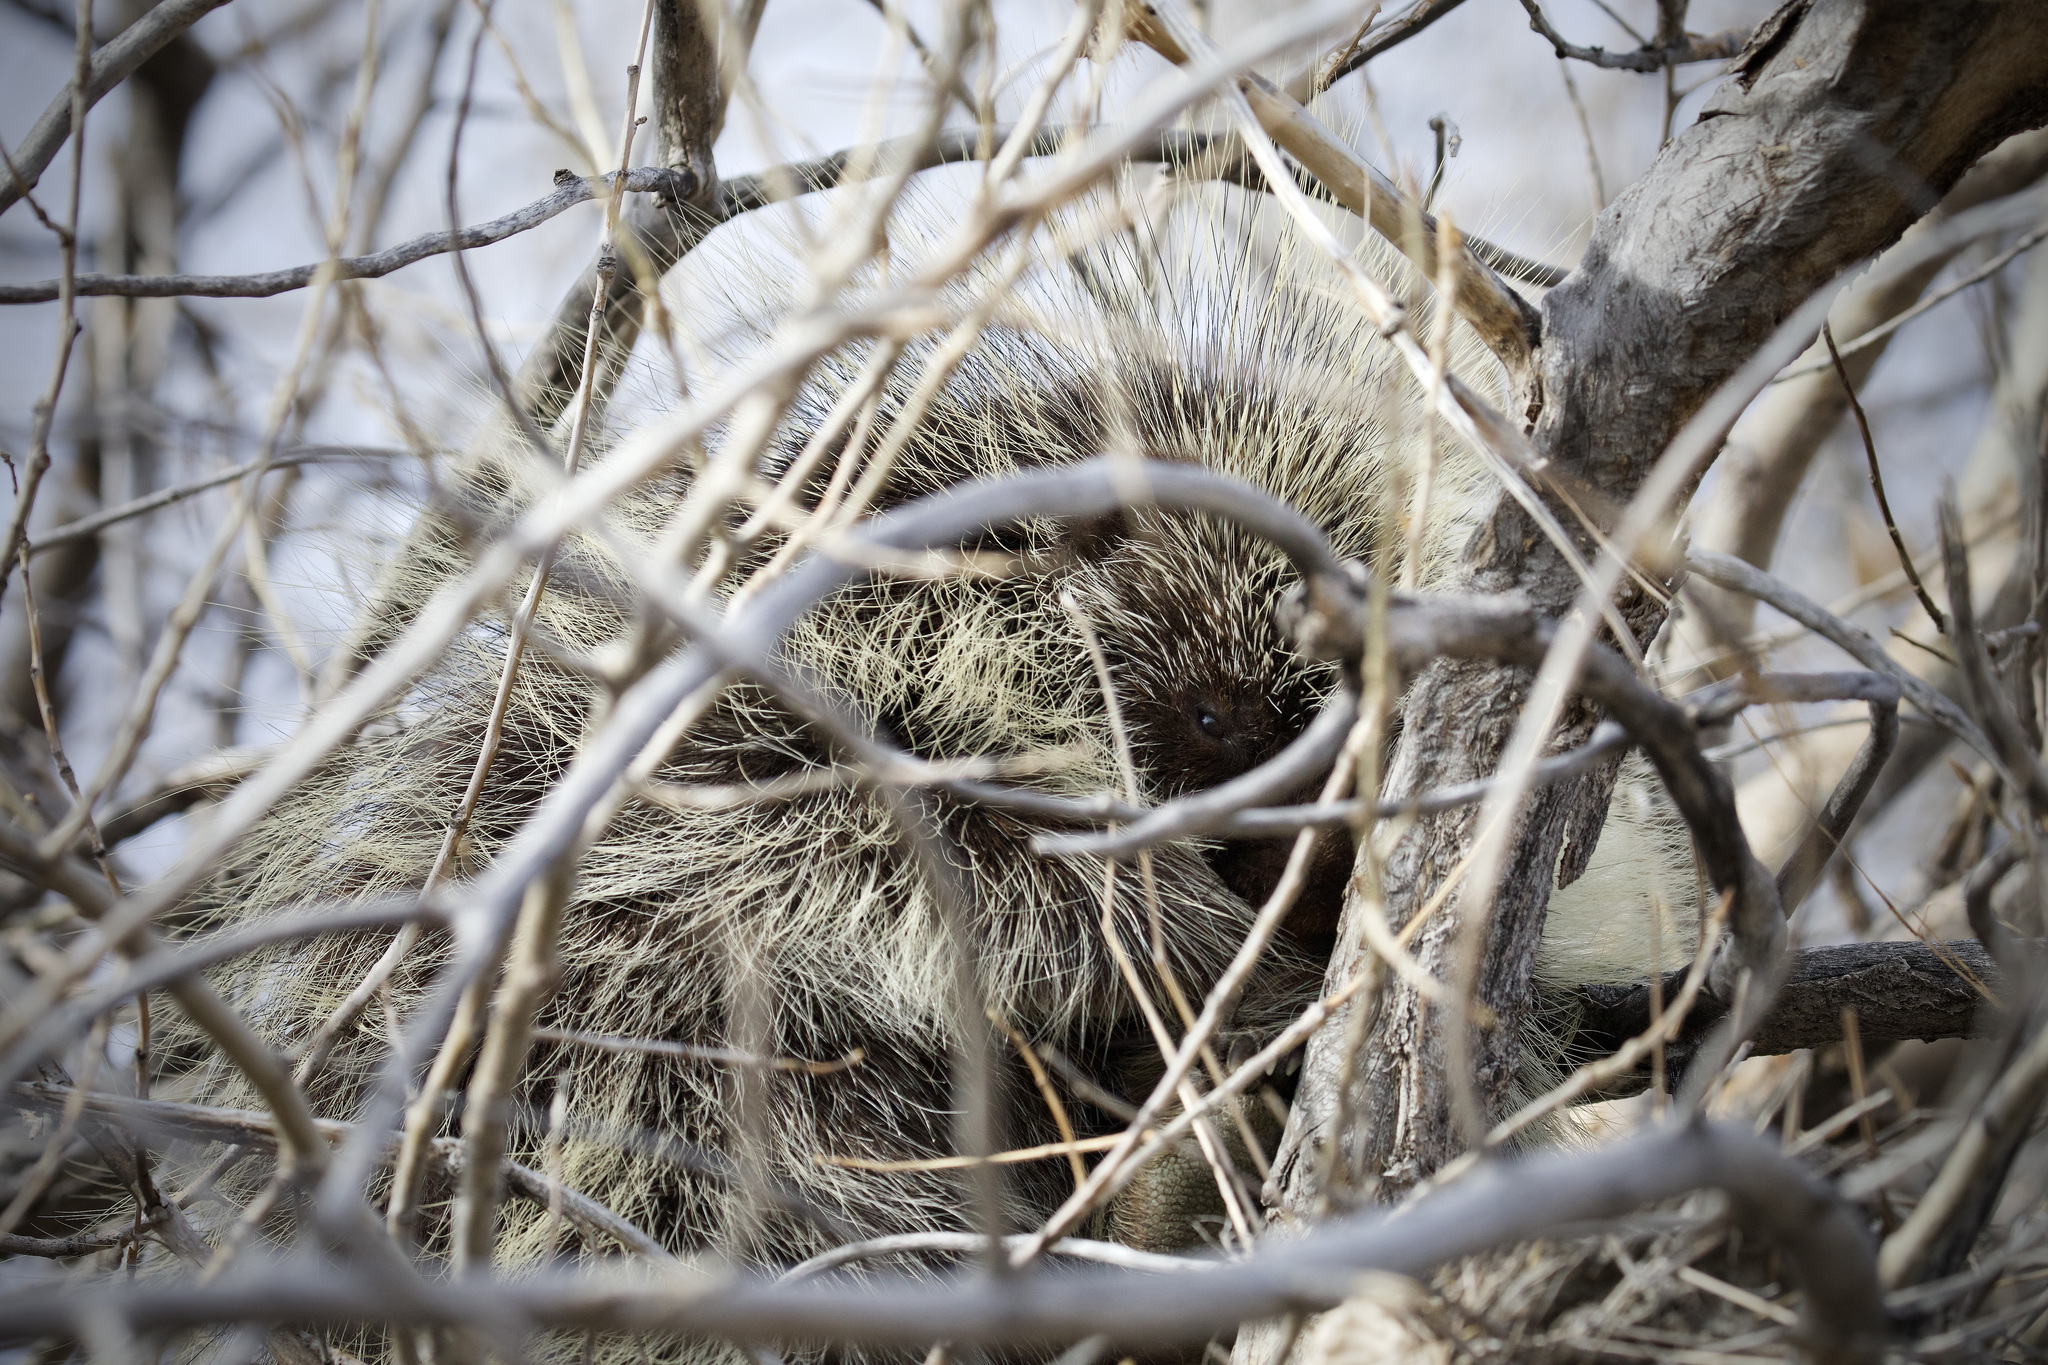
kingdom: Animalia
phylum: Chordata
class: Mammalia
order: Rodentia
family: Erethizontidae
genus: Erethizon
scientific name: Erethizon dorsatus
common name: North american porcupine
